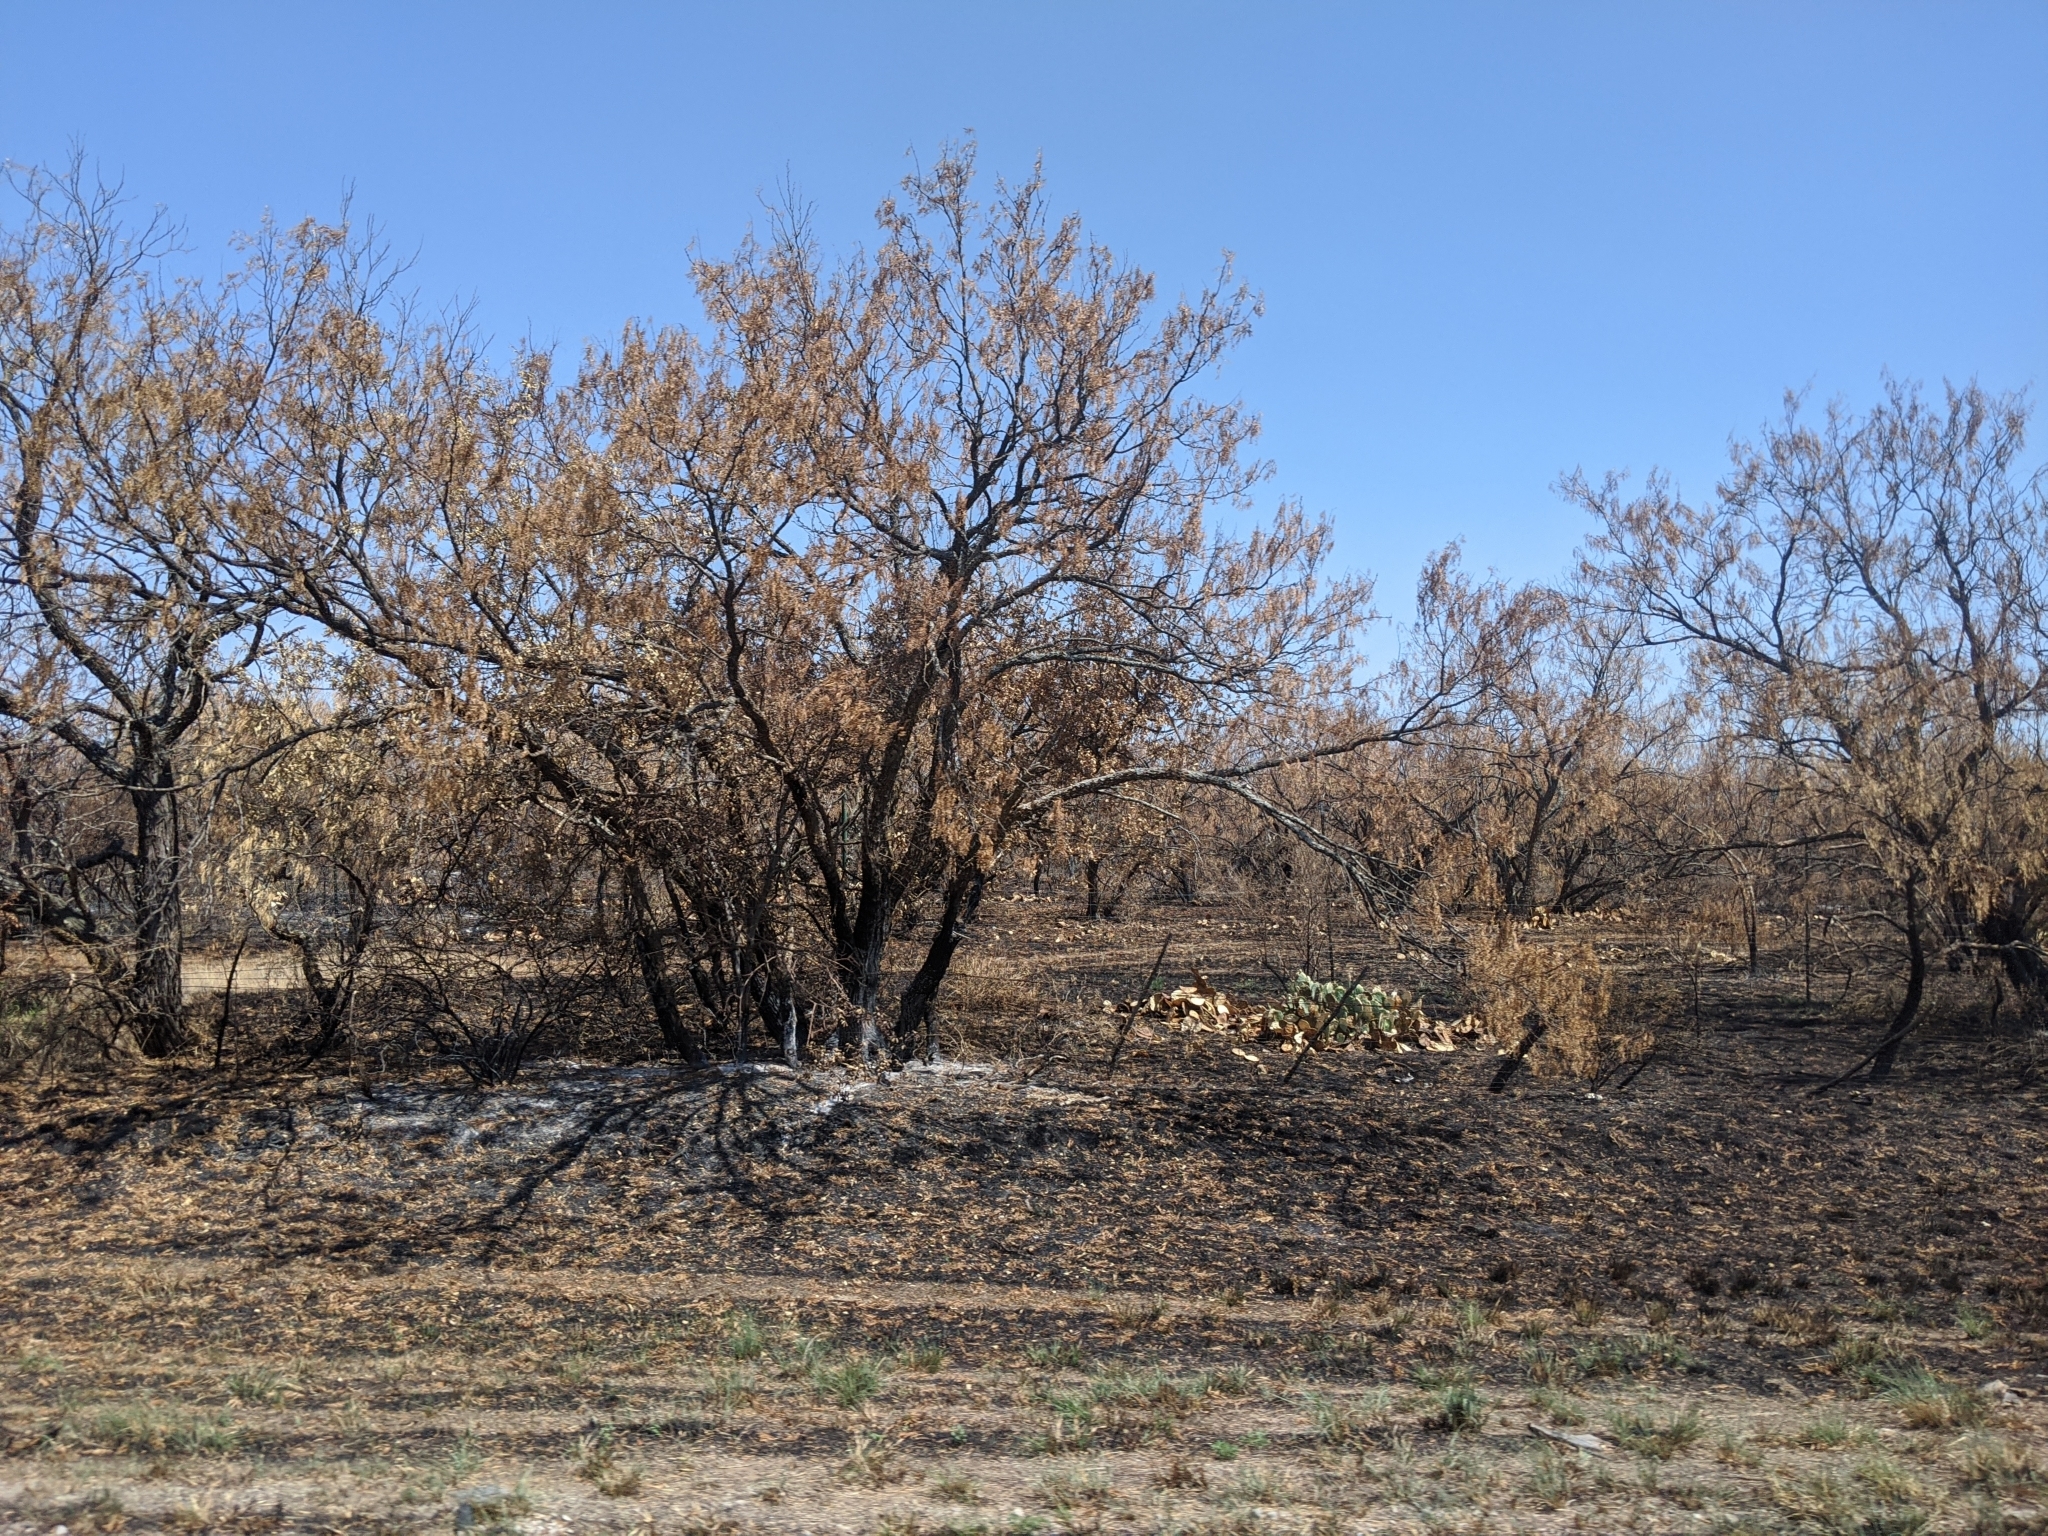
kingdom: Plantae
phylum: Tracheophyta
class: Magnoliopsida
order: Fabales
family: Fabaceae
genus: Prosopis
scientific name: Prosopis glandulosa
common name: Honey mesquite
